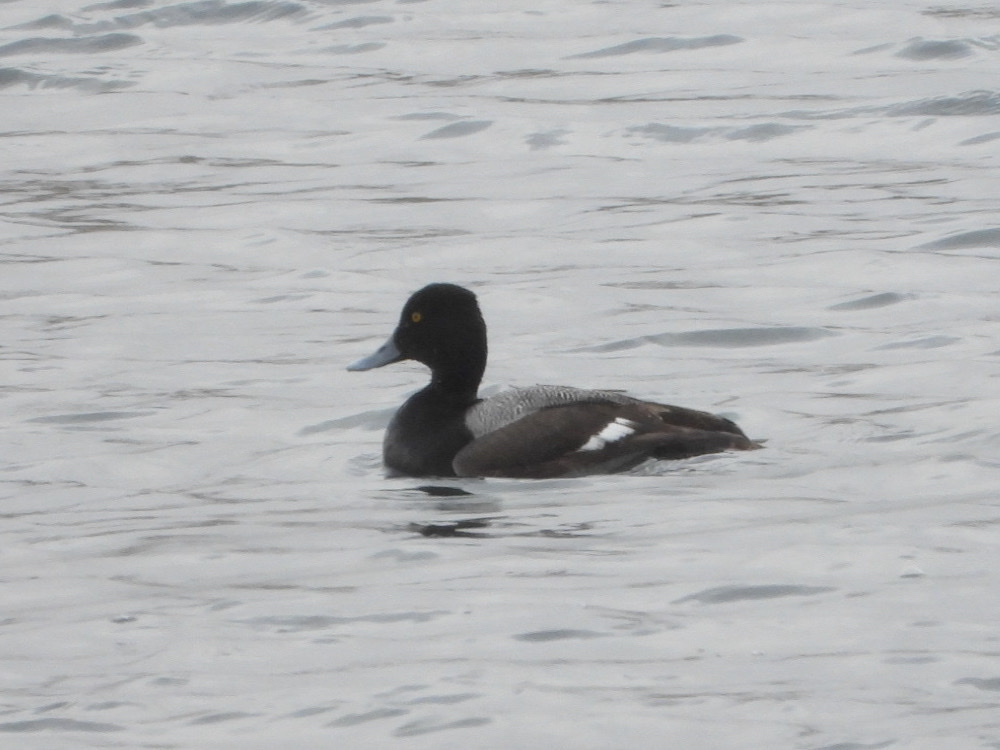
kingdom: Animalia
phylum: Chordata
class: Aves
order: Anseriformes
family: Anatidae
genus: Aythya
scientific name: Aythya affinis
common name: Lesser scaup
